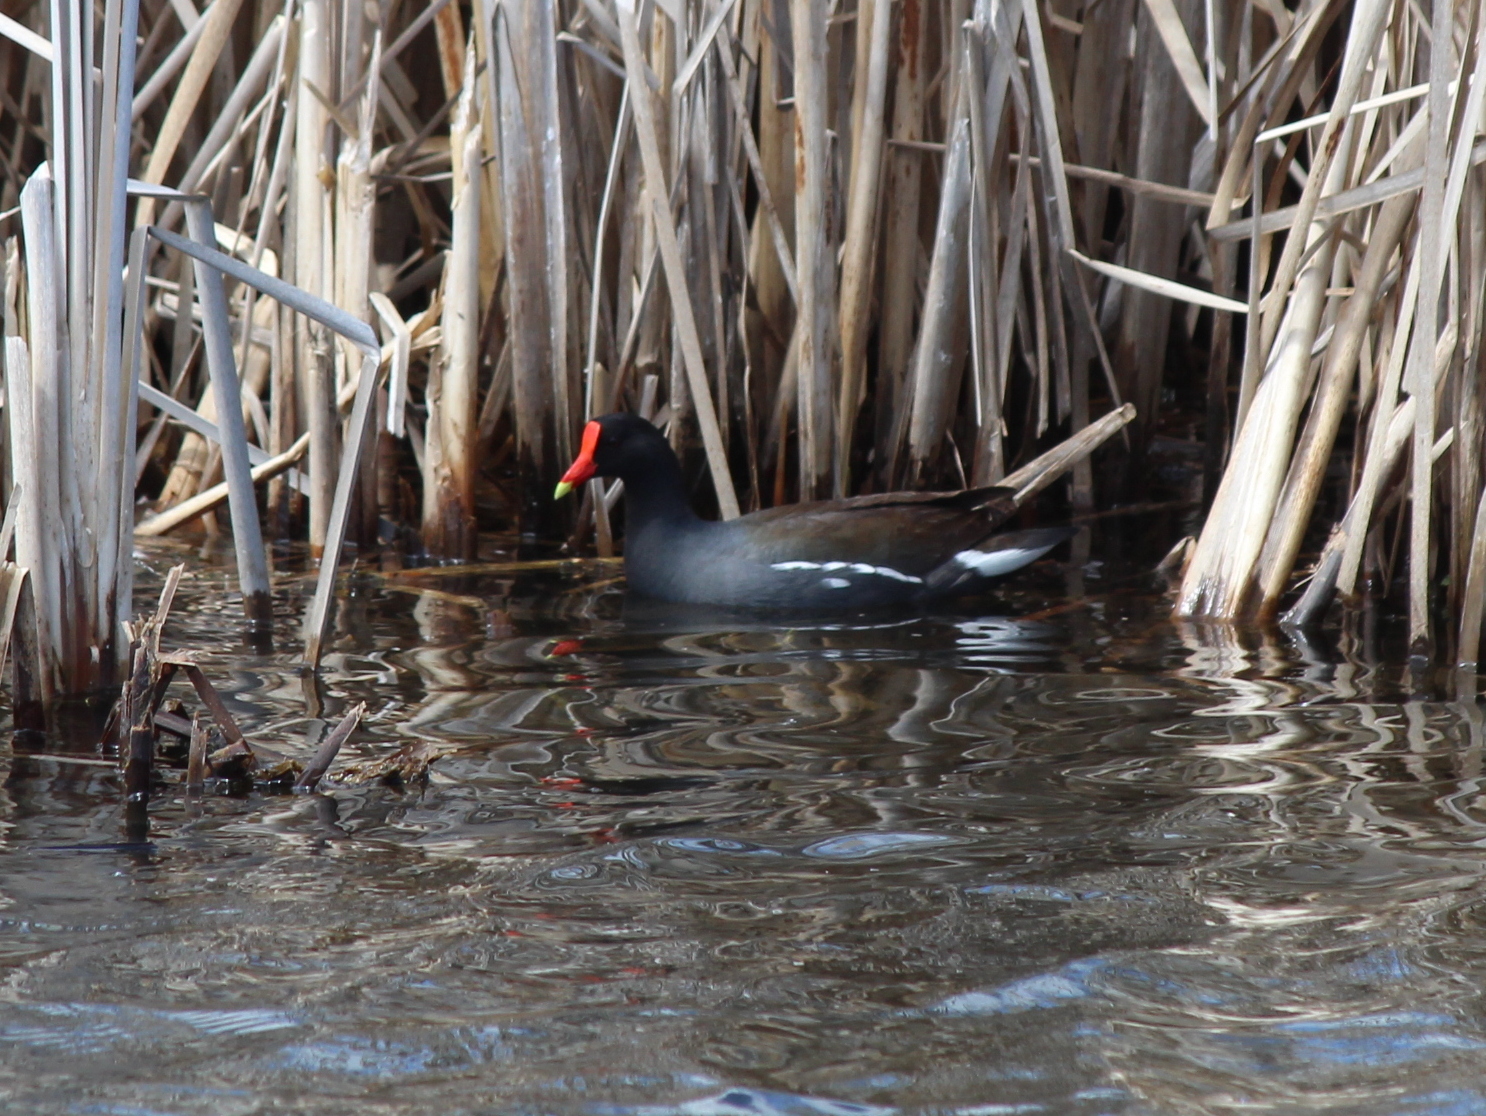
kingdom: Animalia
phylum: Chordata
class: Aves
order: Gruiformes
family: Rallidae
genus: Gallinula
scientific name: Gallinula chloropus
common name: Common moorhen
